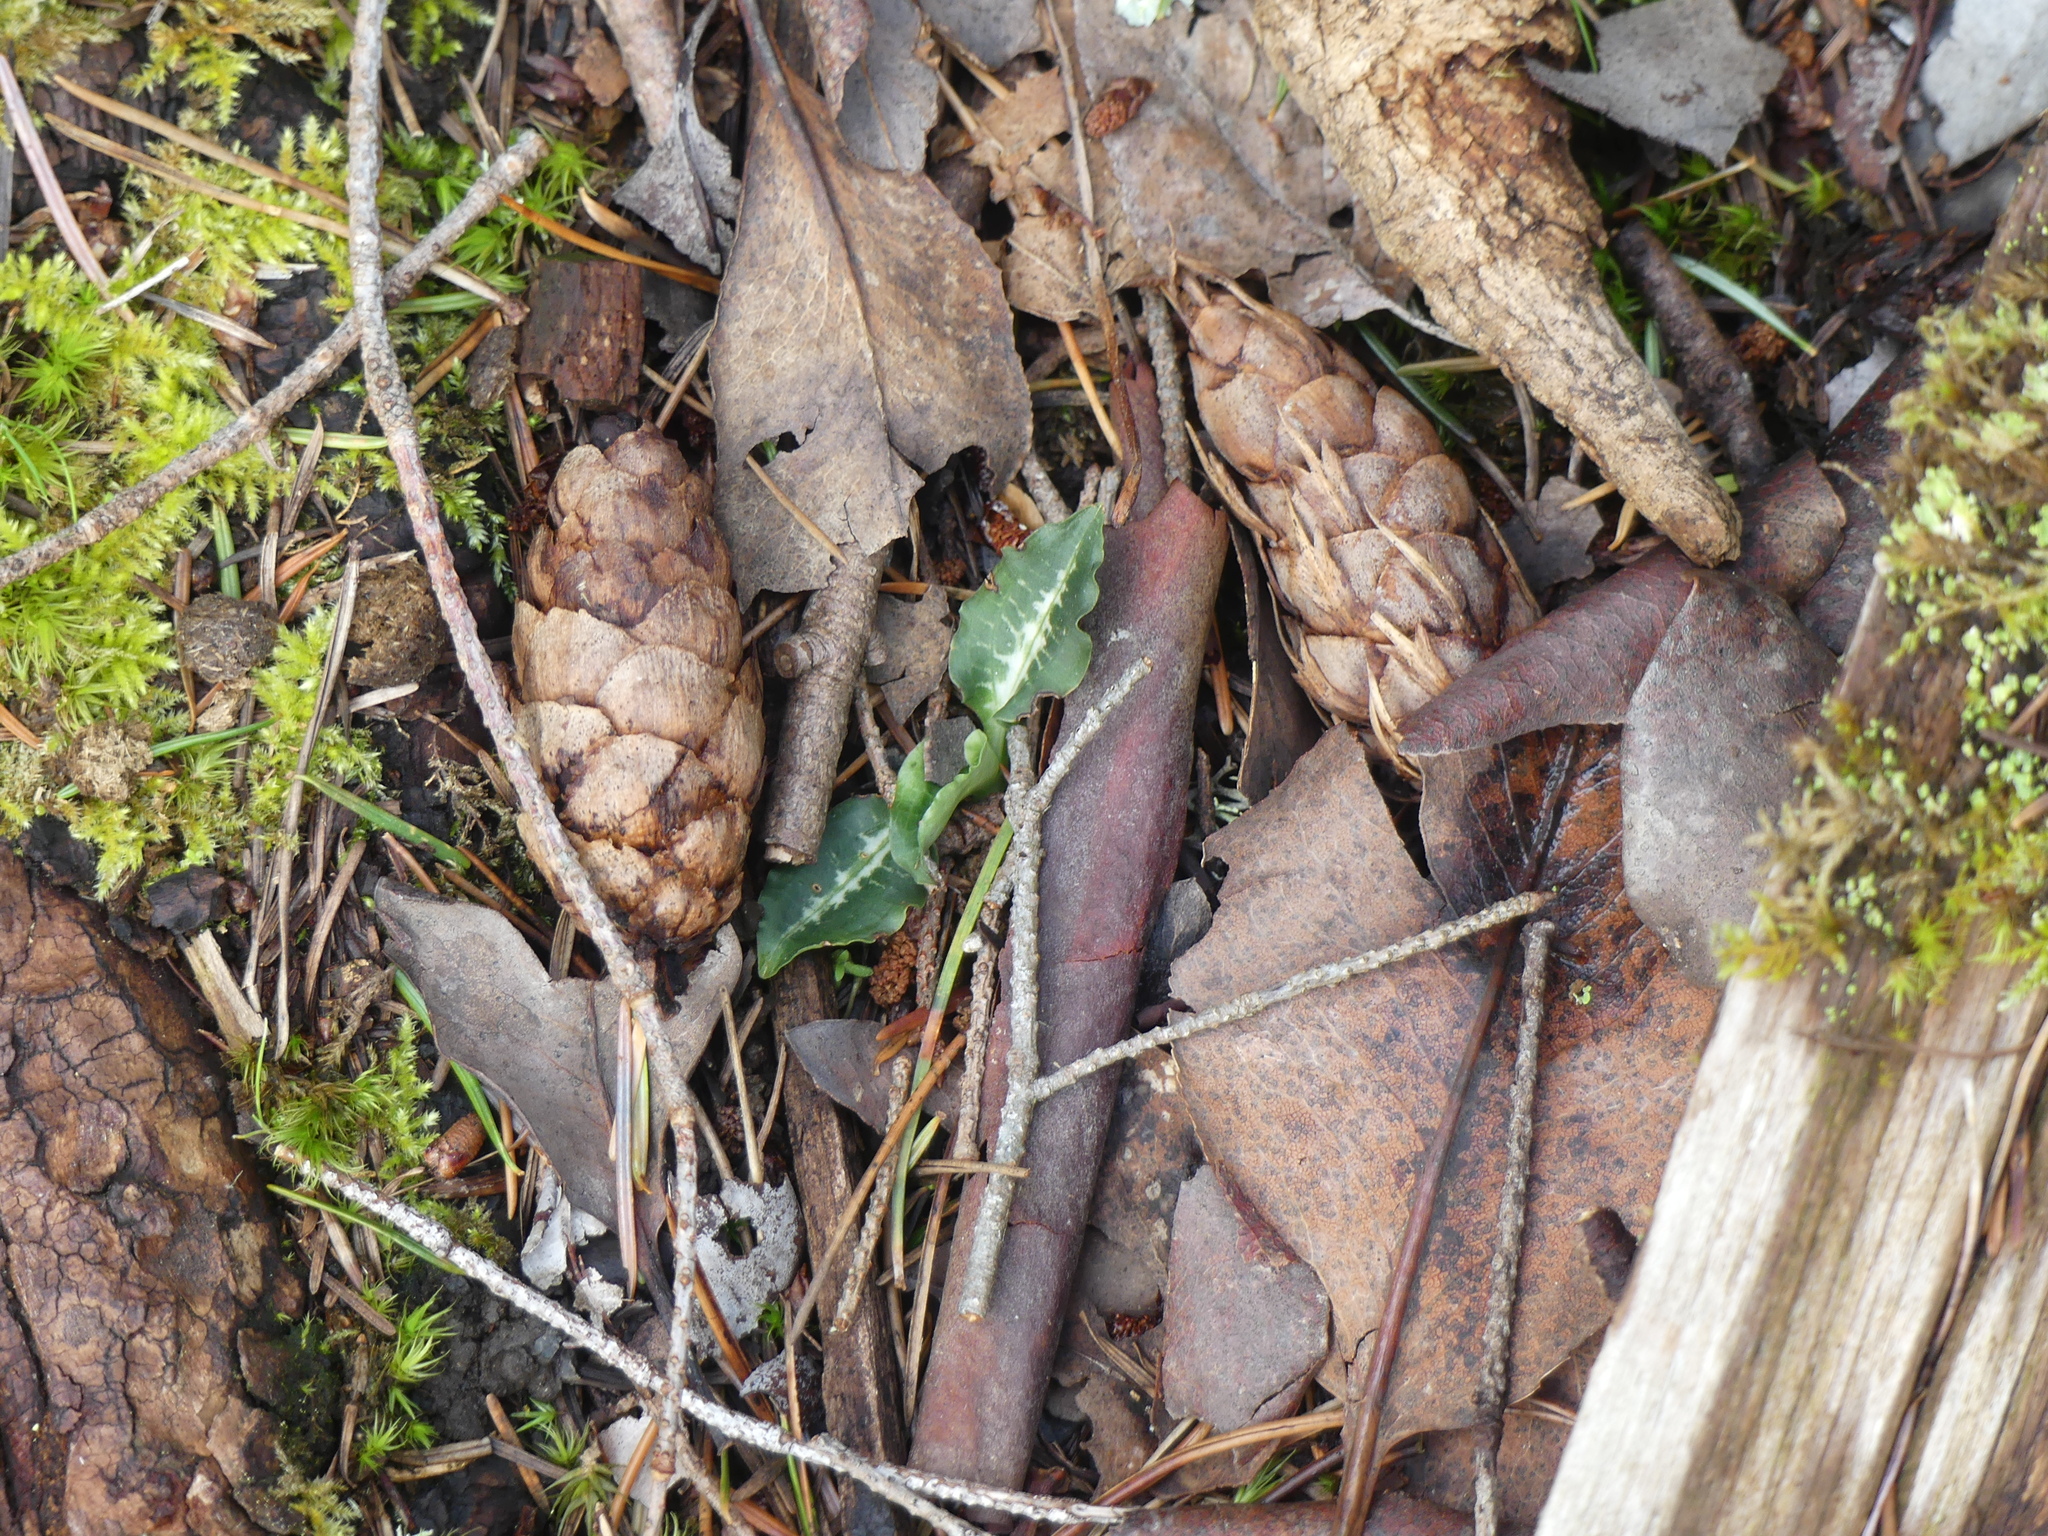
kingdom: Plantae
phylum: Tracheophyta
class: Liliopsida
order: Asparagales
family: Orchidaceae
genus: Goodyera
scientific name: Goodyera oblongifolia
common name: Giant rattlesnake-plantain
